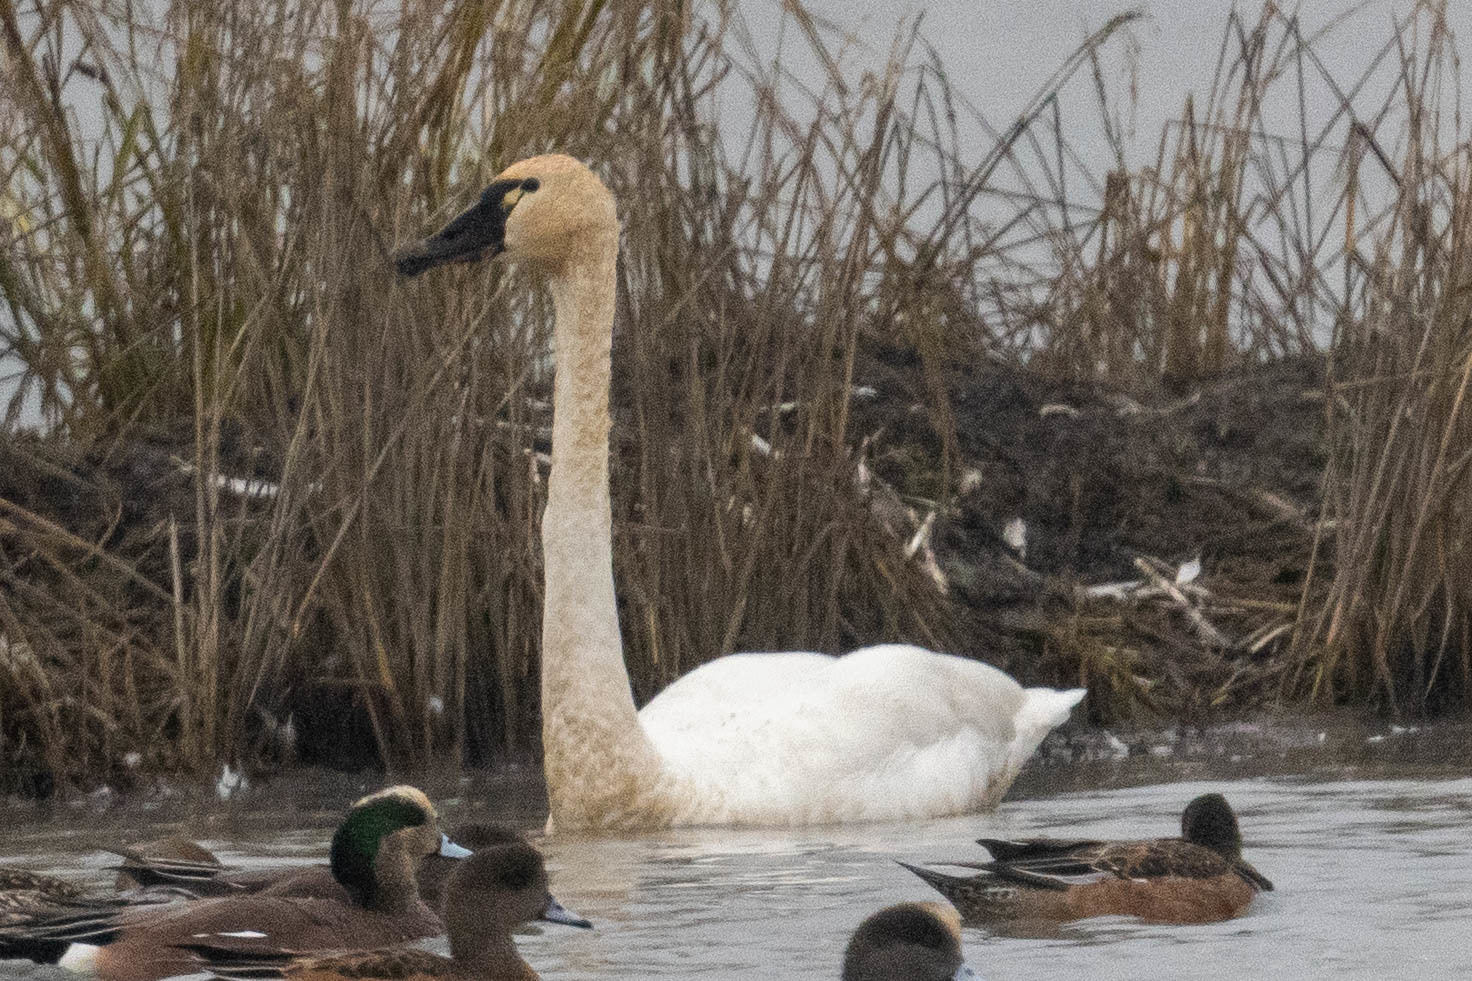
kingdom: Animalia
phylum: Chordata
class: Aves
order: Anseriformes
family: Anatidae
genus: Cygnus
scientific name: Cygnus columbianus
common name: Tundra swan
